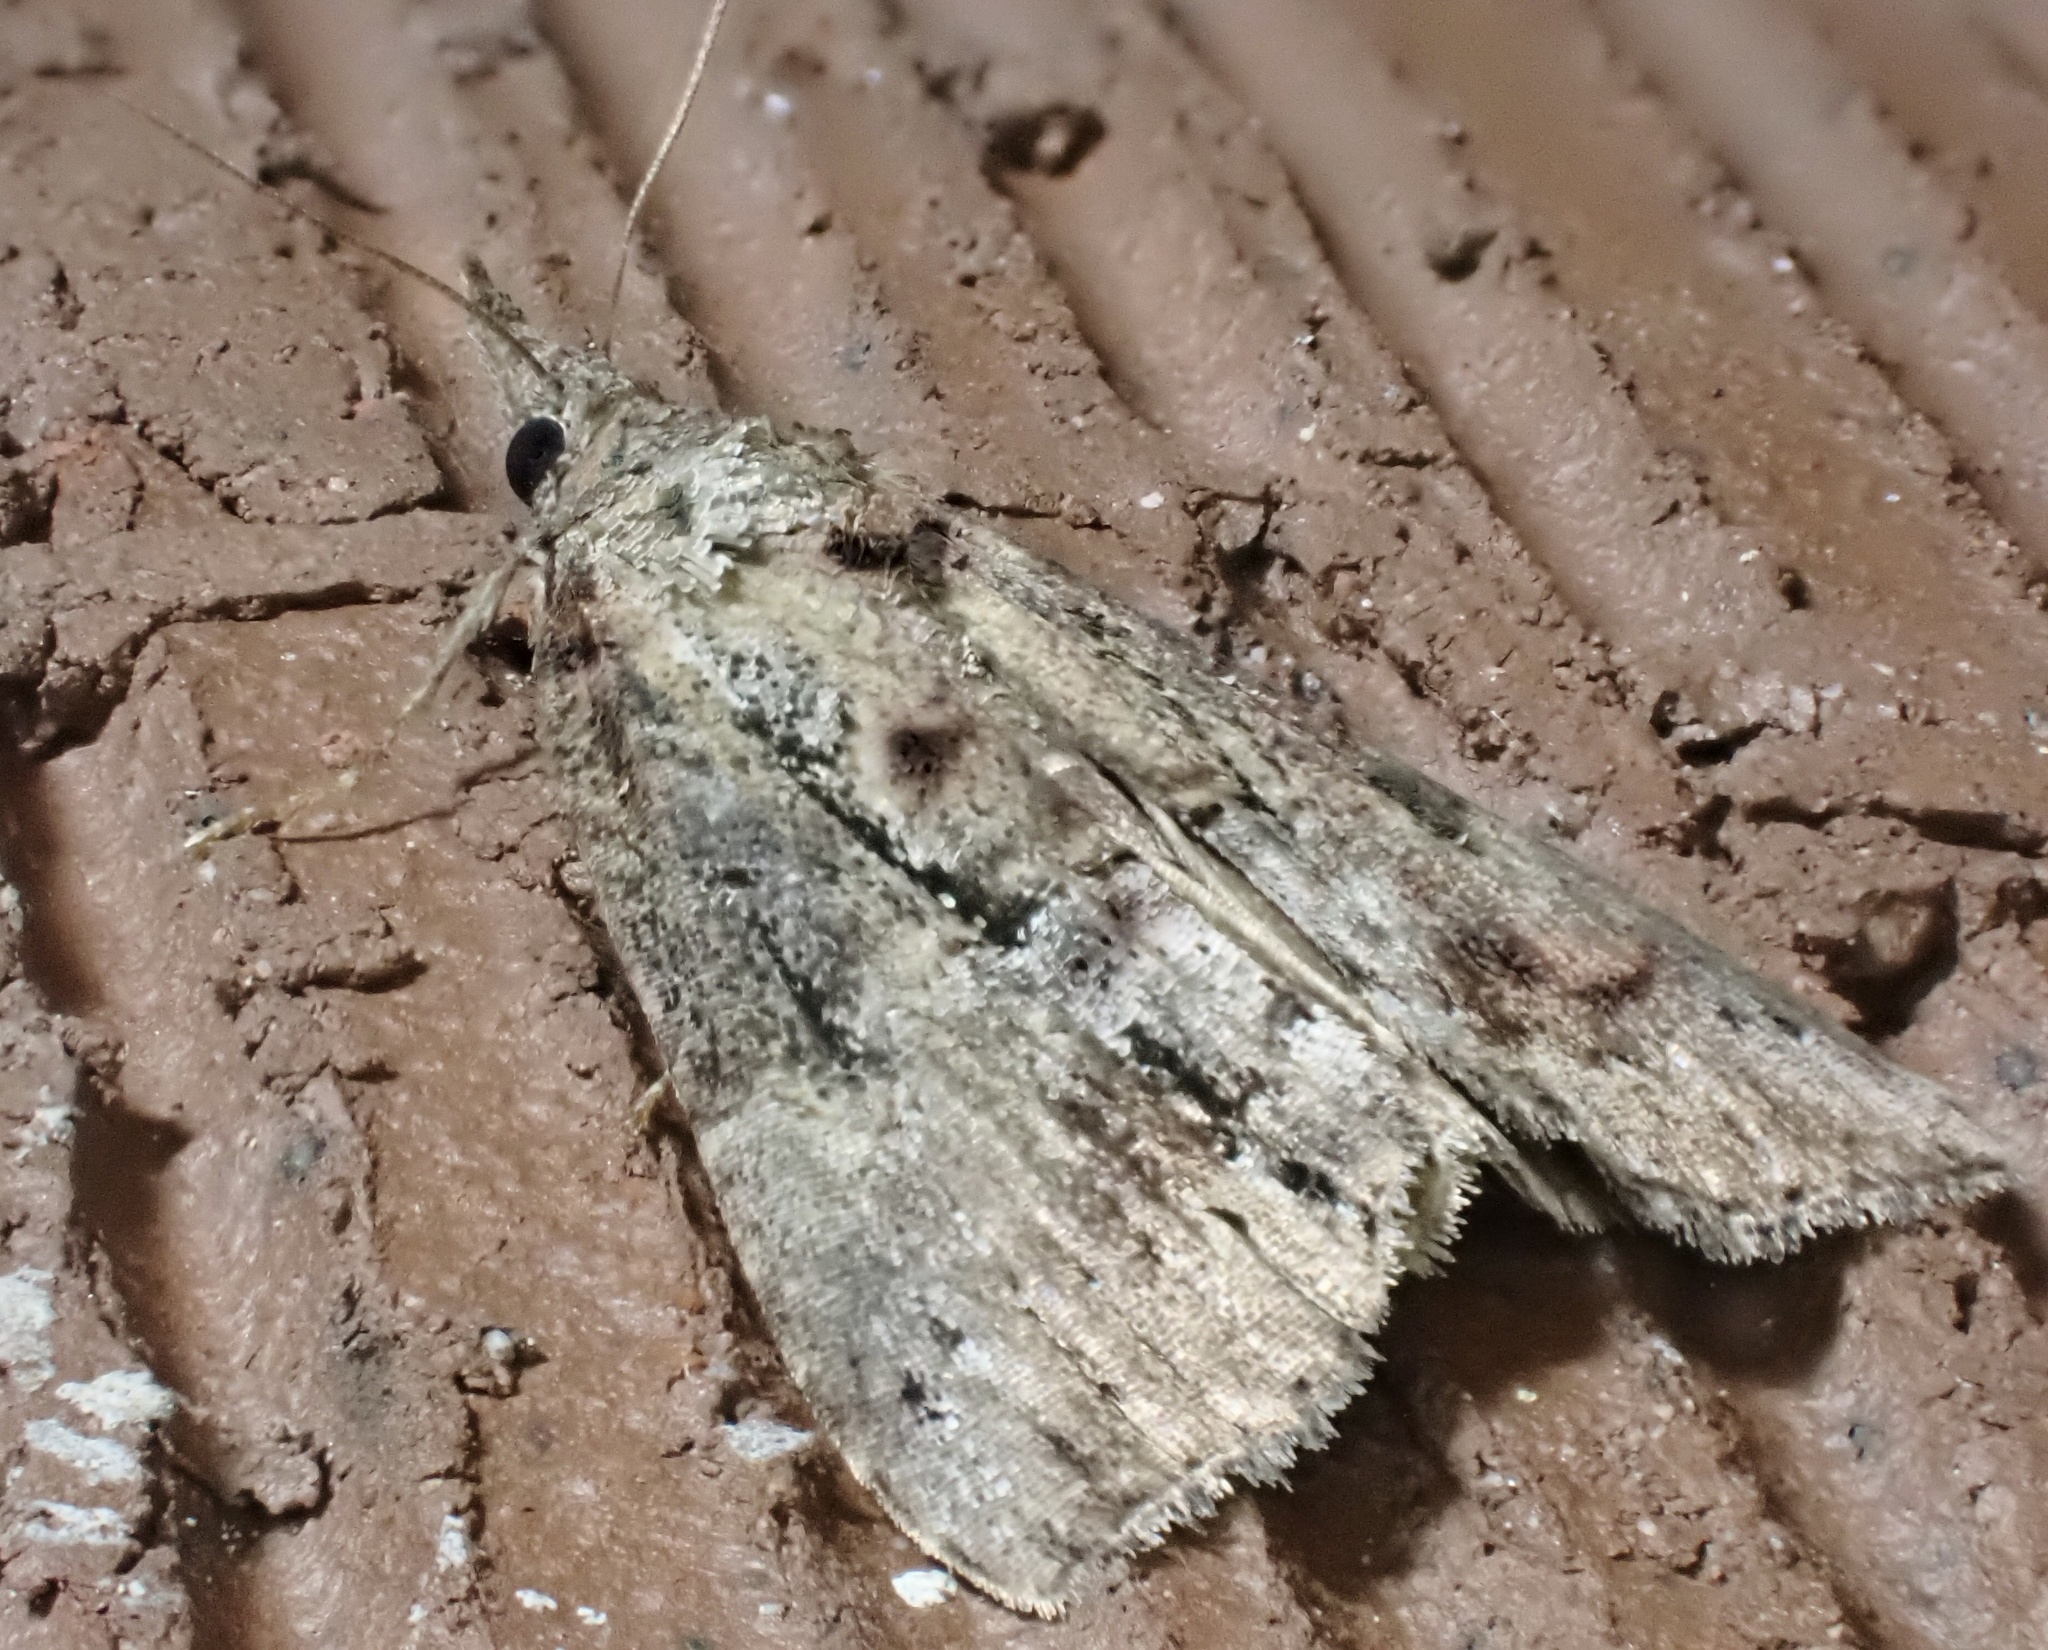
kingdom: Animalia
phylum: Arthropoda
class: Insecta
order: Lepidoptera
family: Erebidae
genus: Hypena
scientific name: Hypena scabra
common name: Green cloverworm
